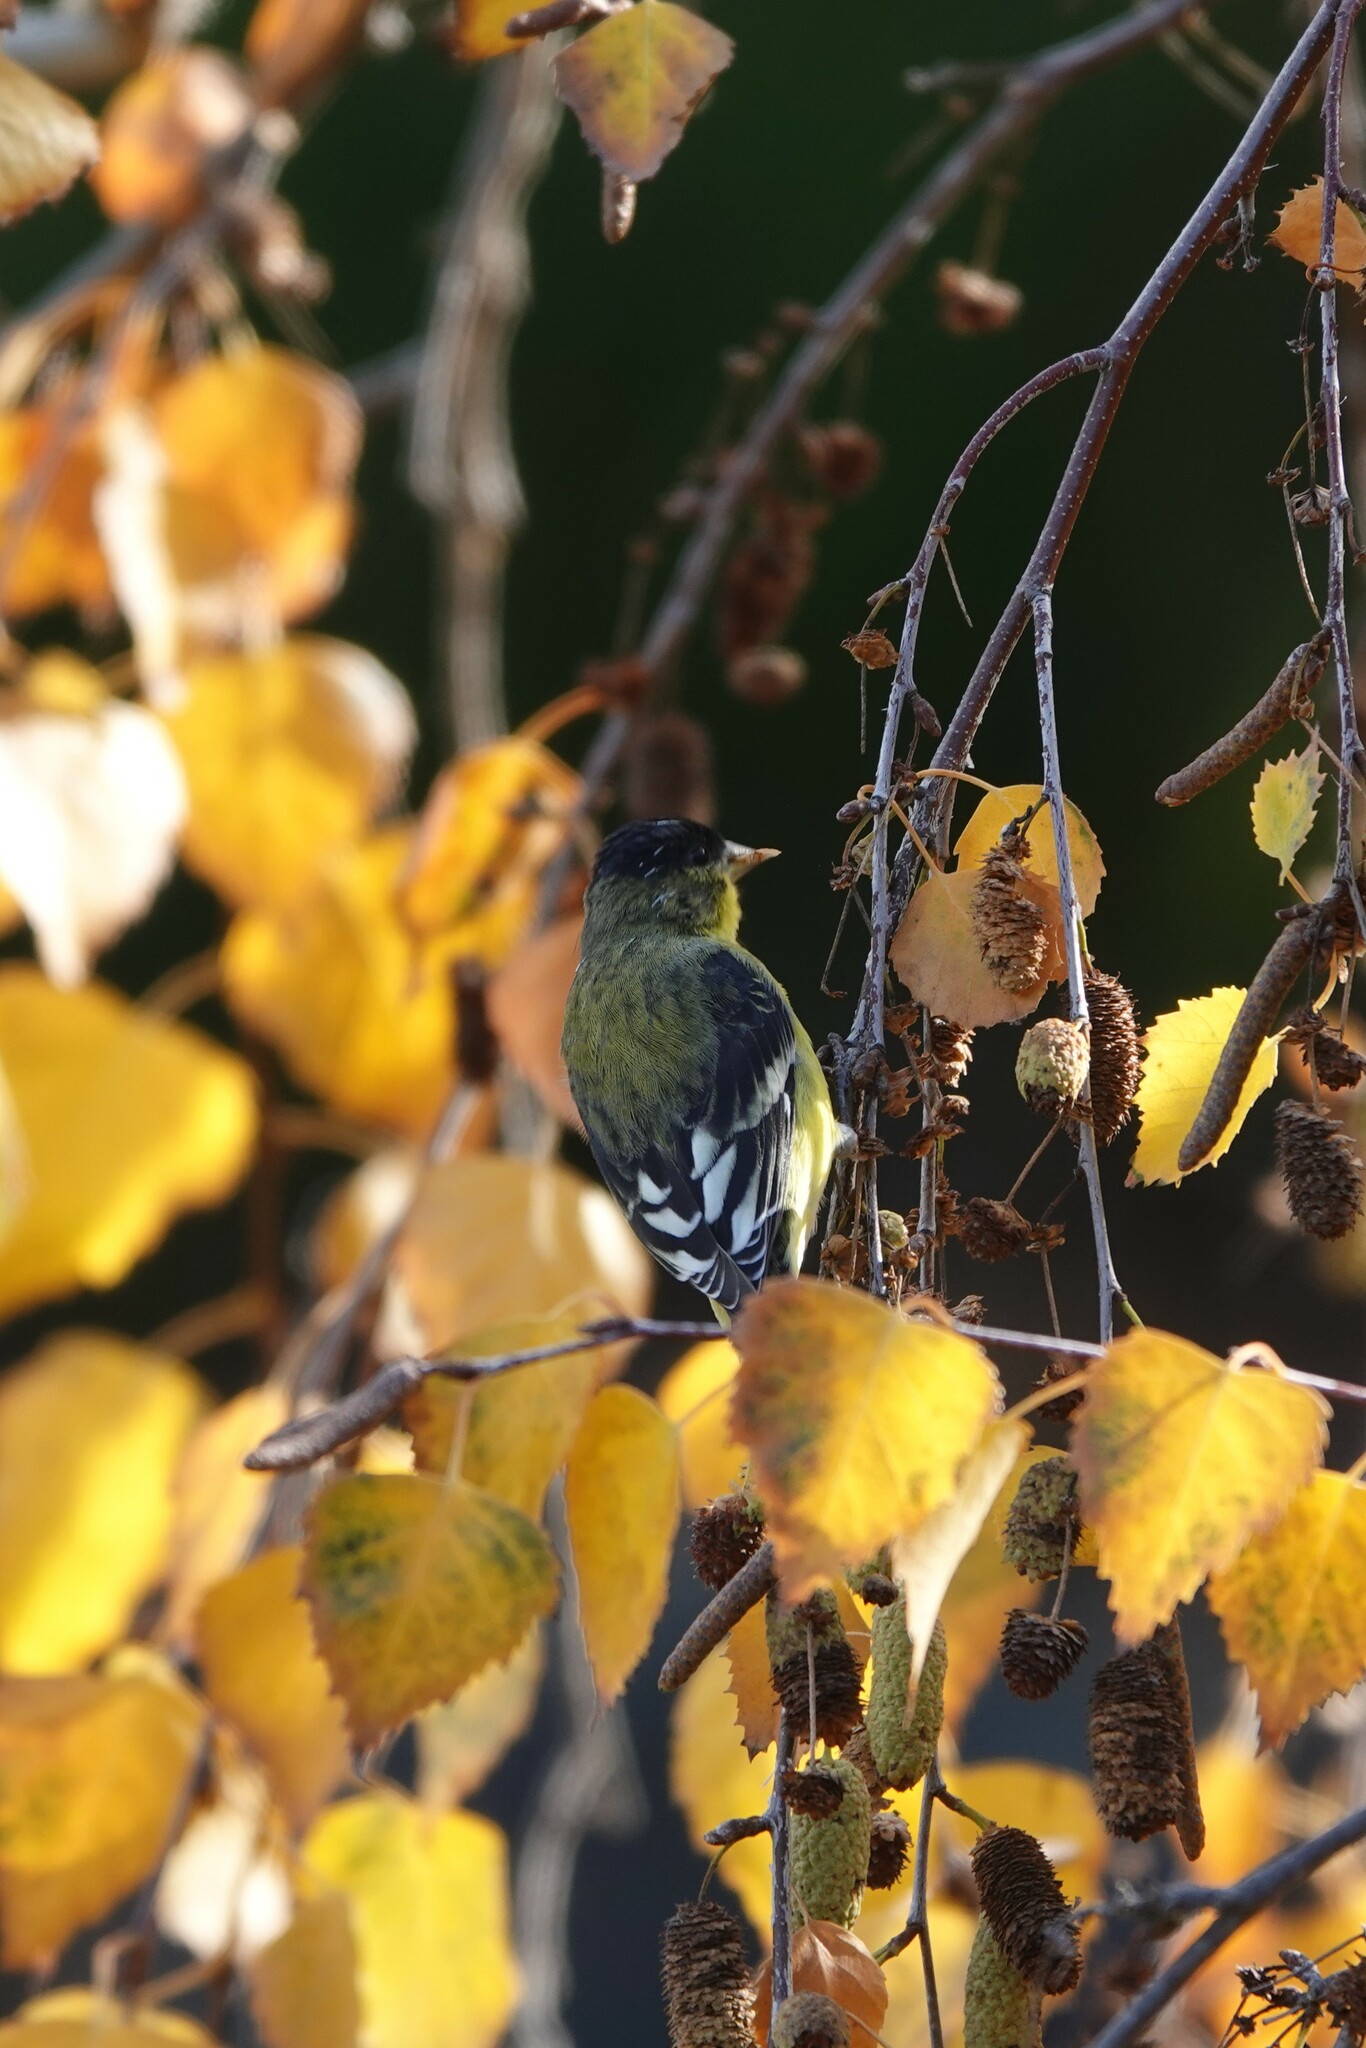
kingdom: Animalia
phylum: Chordata
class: Aves
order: Passeriformes
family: Fringillidae
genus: Spinus
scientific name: Spinus psaltria
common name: Lesser goldfinch
